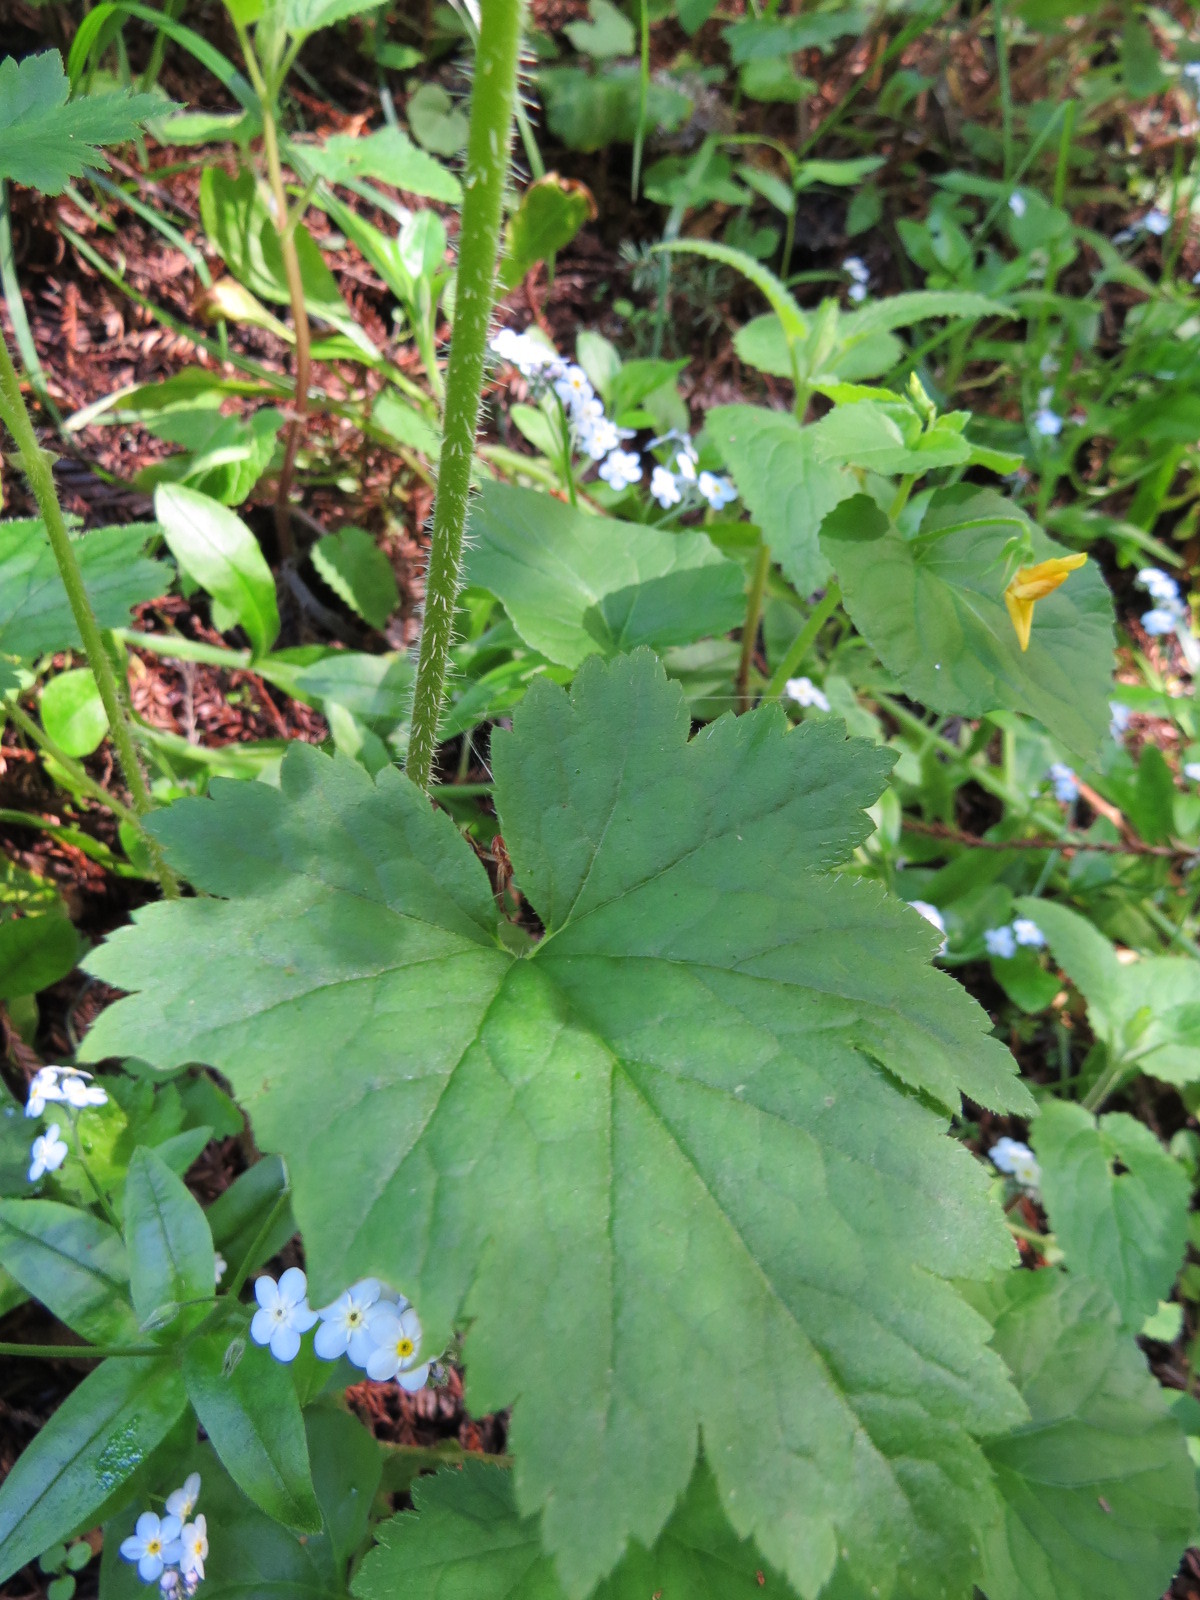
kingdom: Plantae
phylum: Tracheophyta
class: Magnoliopsida
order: Saxifragales
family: Saxifragaceae
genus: Tellima
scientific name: Tellima grandiflora
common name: Fringecups
